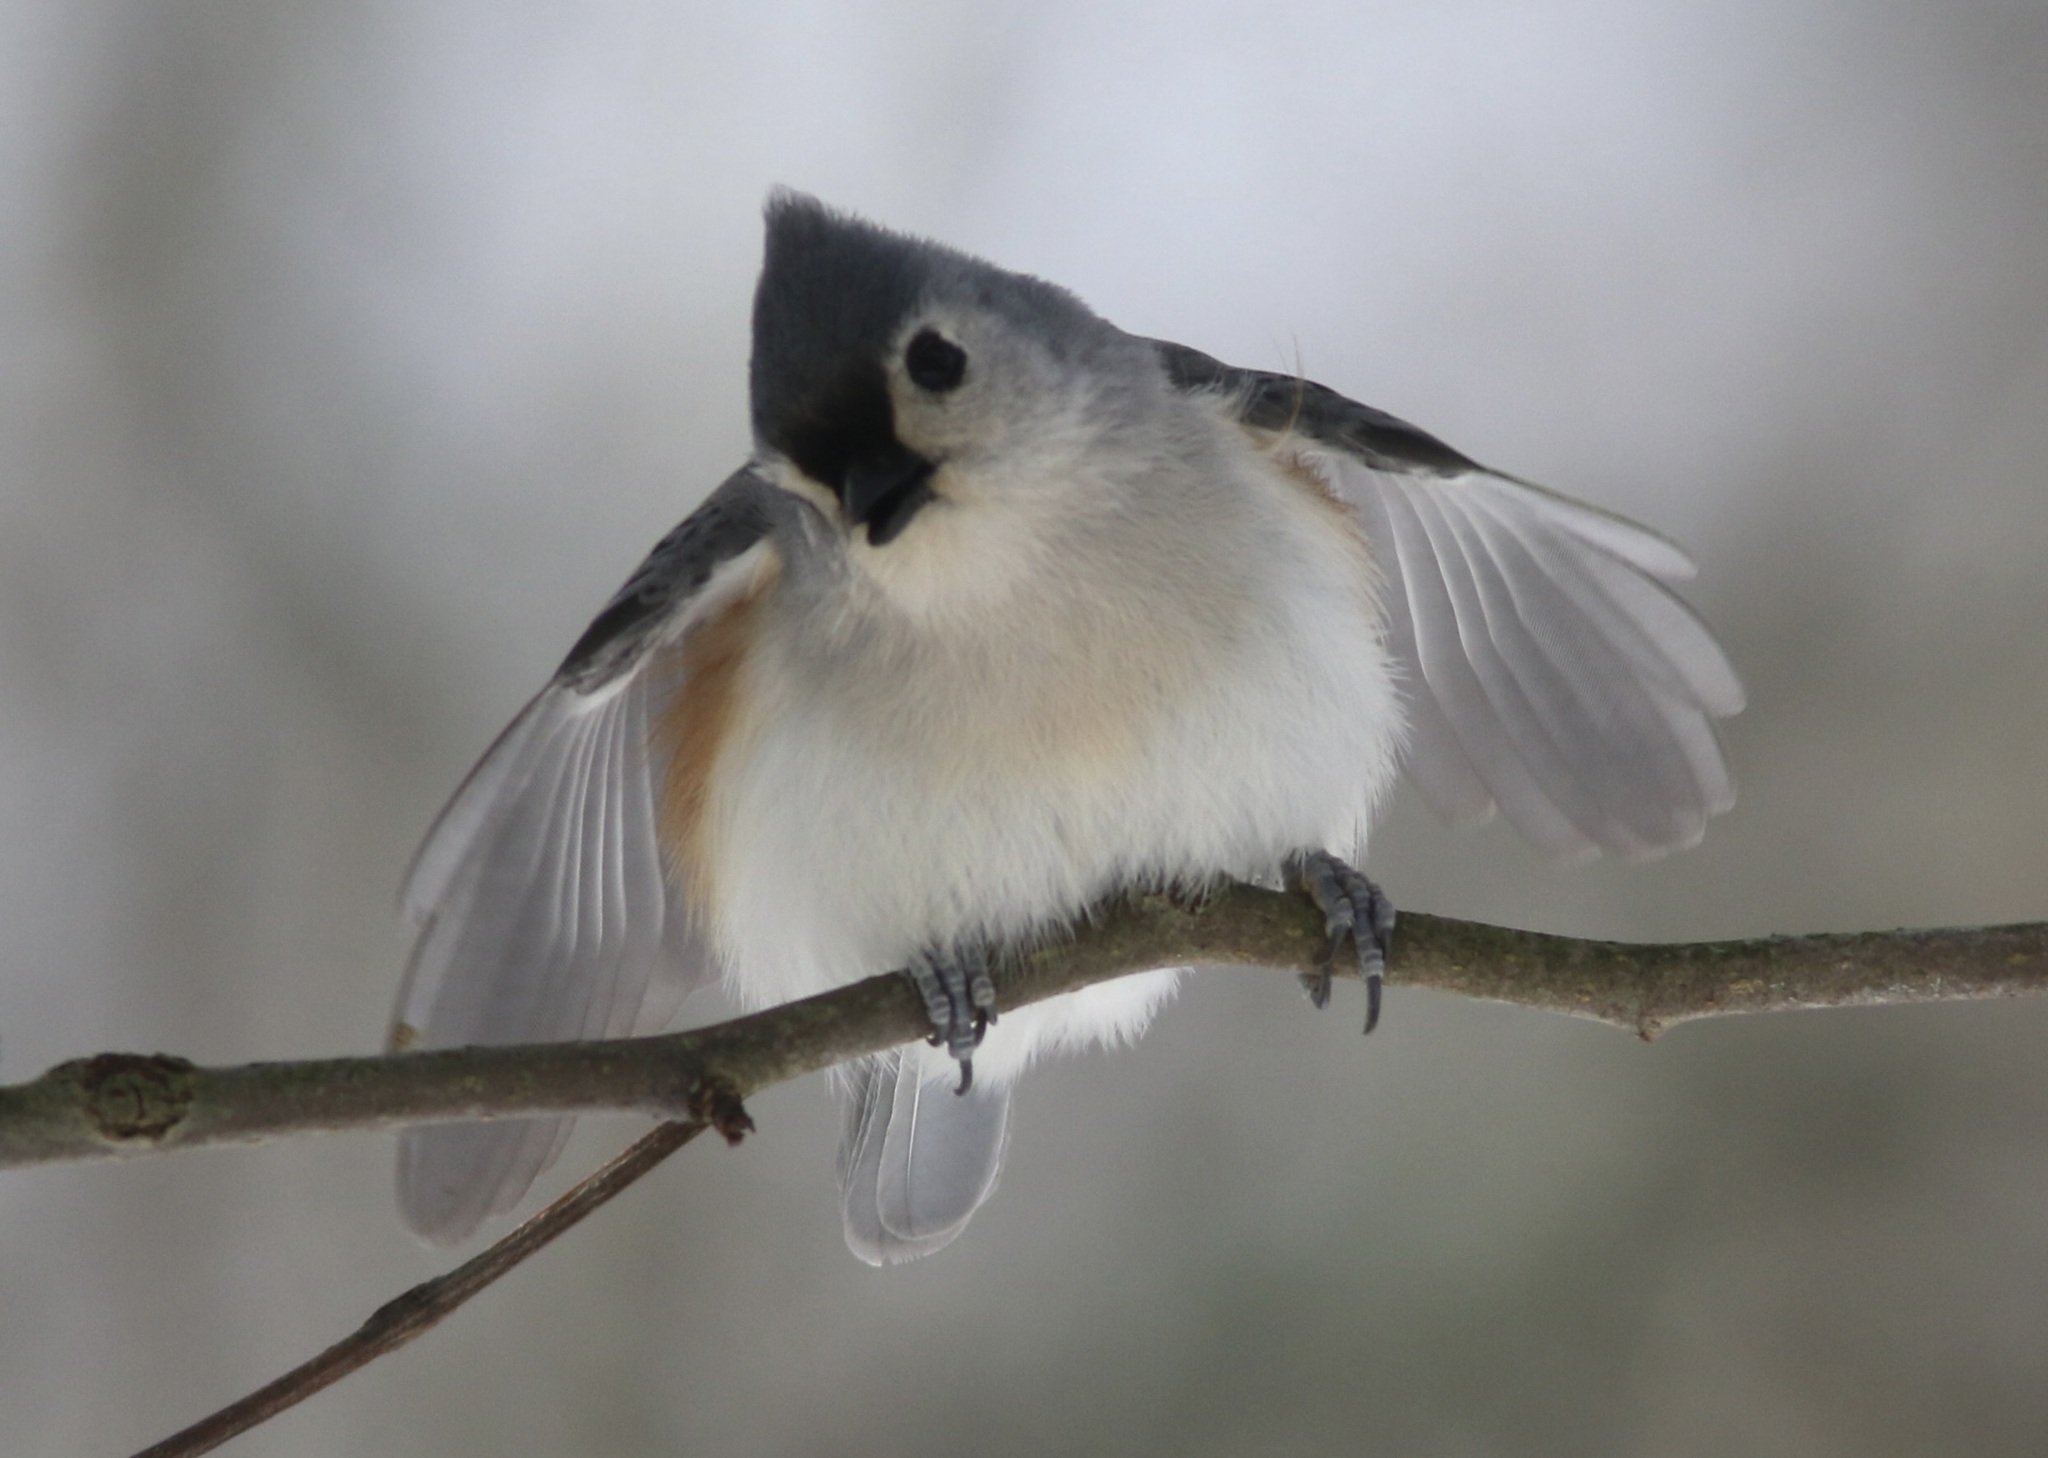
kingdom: Animalia
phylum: Chordata
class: Aves
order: Passeriformes
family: Paridae
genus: Baeolophus
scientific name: Baeolophus bicolor
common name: Tufted titmouse
